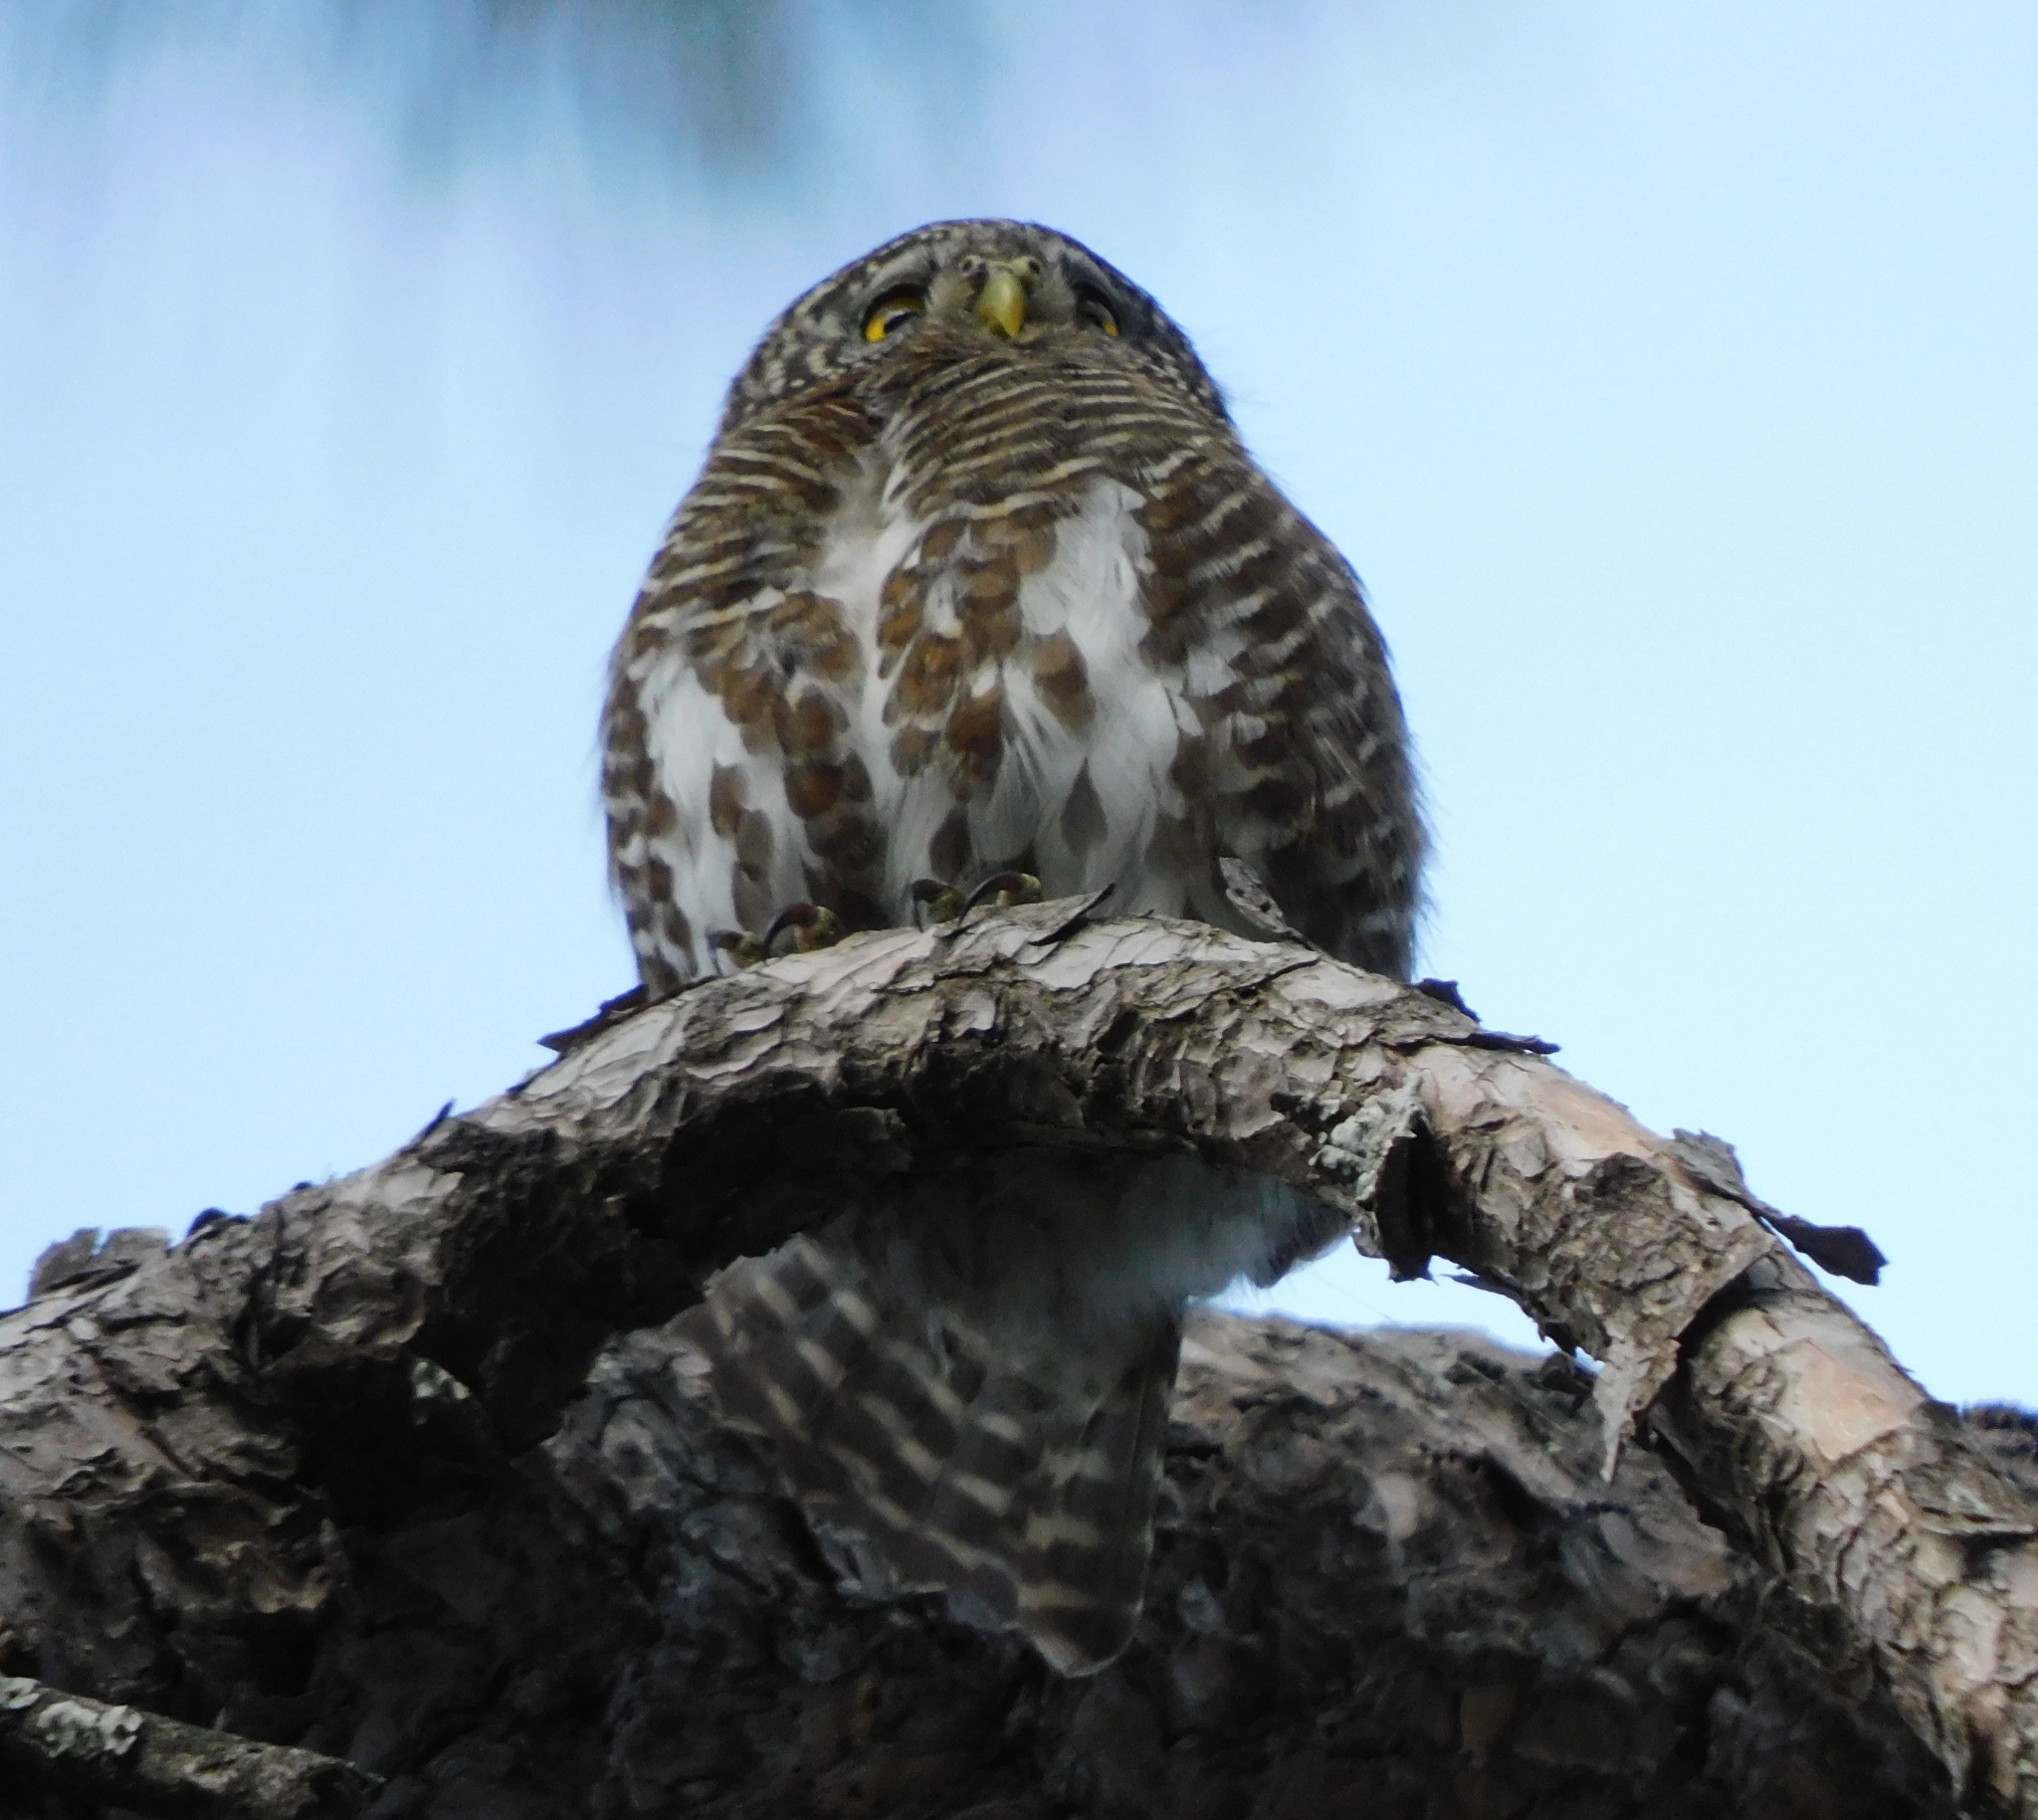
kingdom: Animalia
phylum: Chordata
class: Aves
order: Strigiformes
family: Strigidae
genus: Glaucidium
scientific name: Glaucidium brodiei
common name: Collared owlet
